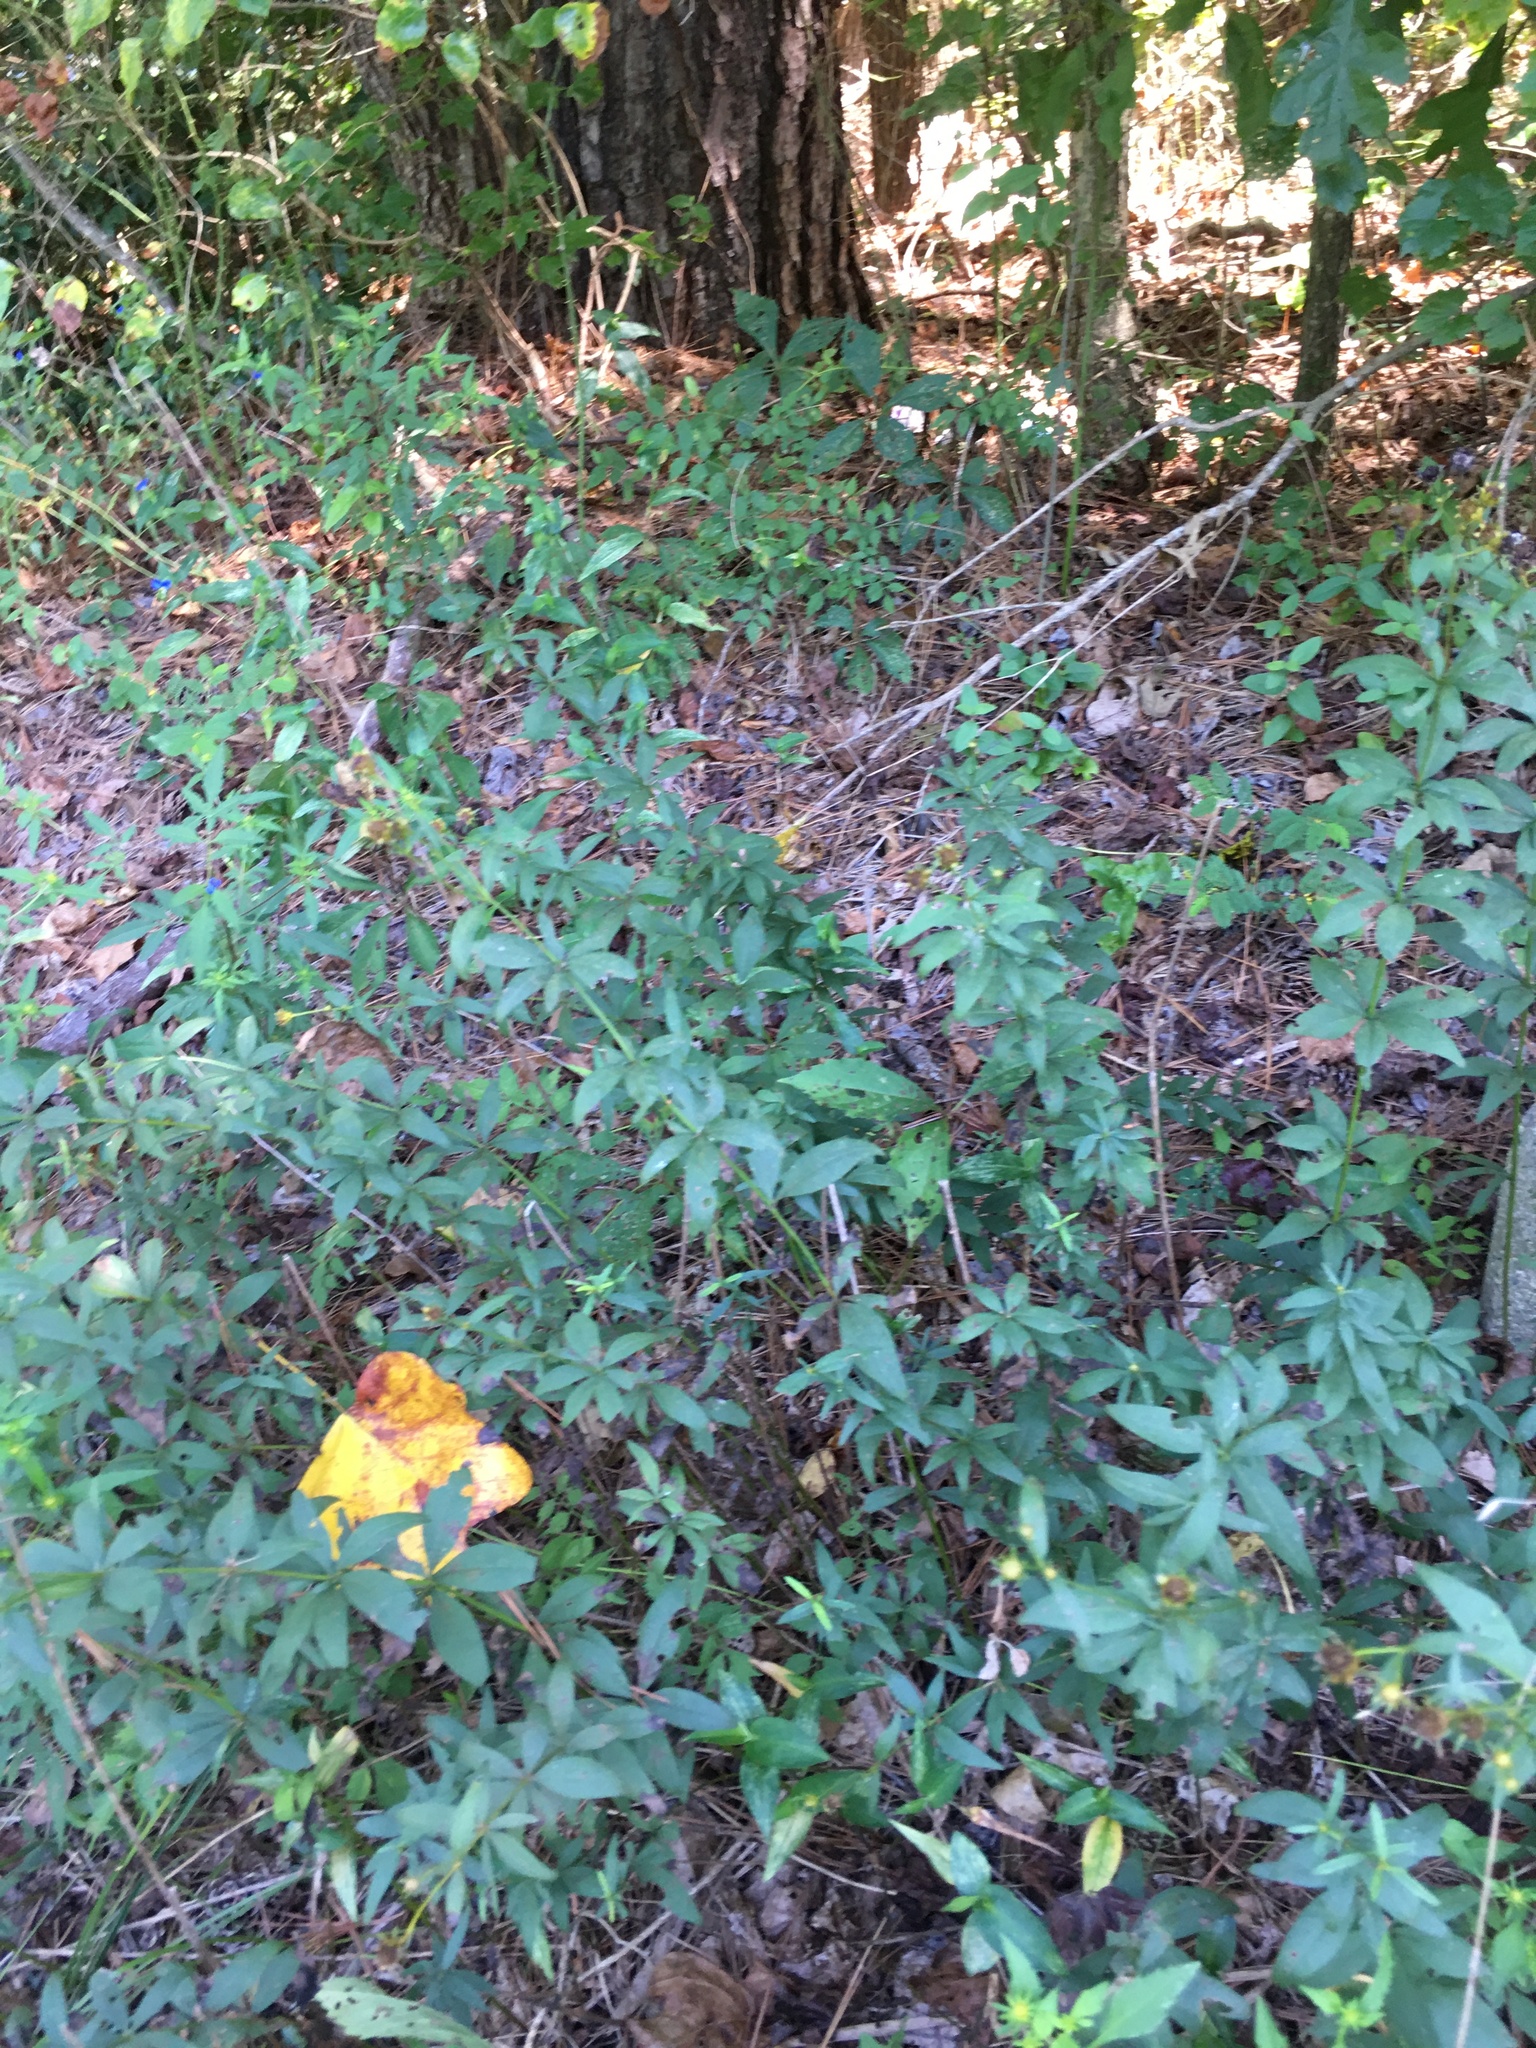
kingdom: Plantae
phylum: Tracheophyta
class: Magnoliopsida
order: Asterales
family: Asteraceae
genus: Coreopsis
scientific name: Coreopsis major
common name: Forest tickseed
